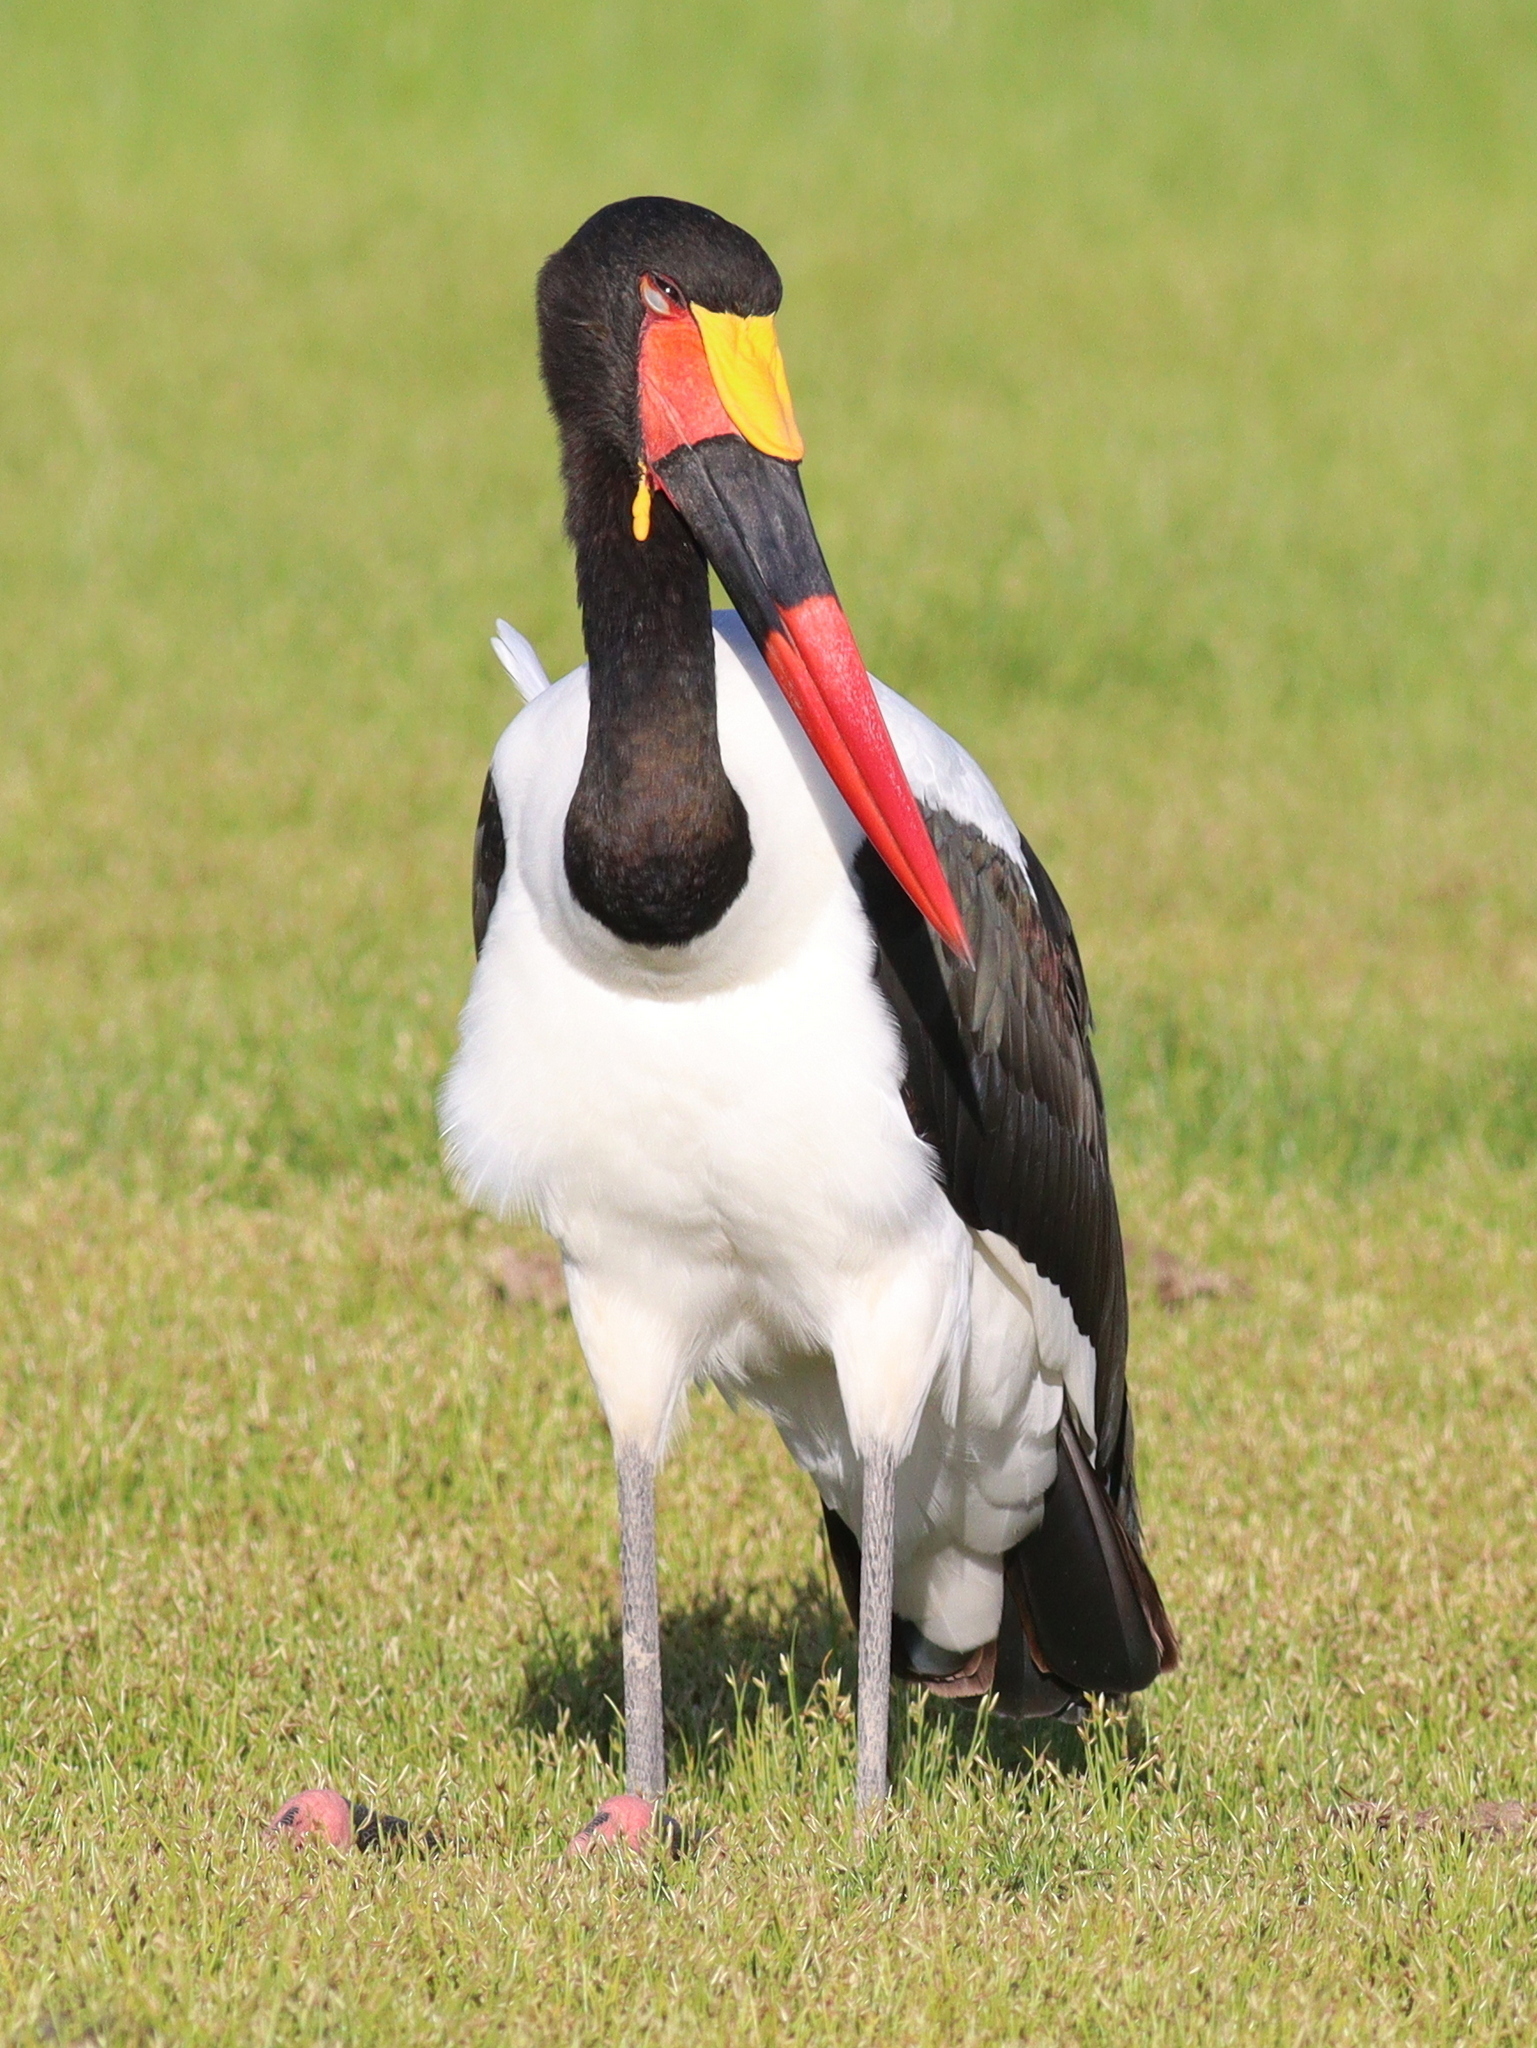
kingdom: Animalia
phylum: Chordata
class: Aves
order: Ciconiiformes
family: Ciconiidae
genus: Ephippiorhynchus
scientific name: Ephippiorhynchus senegalensis
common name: Saddle-billed stork
